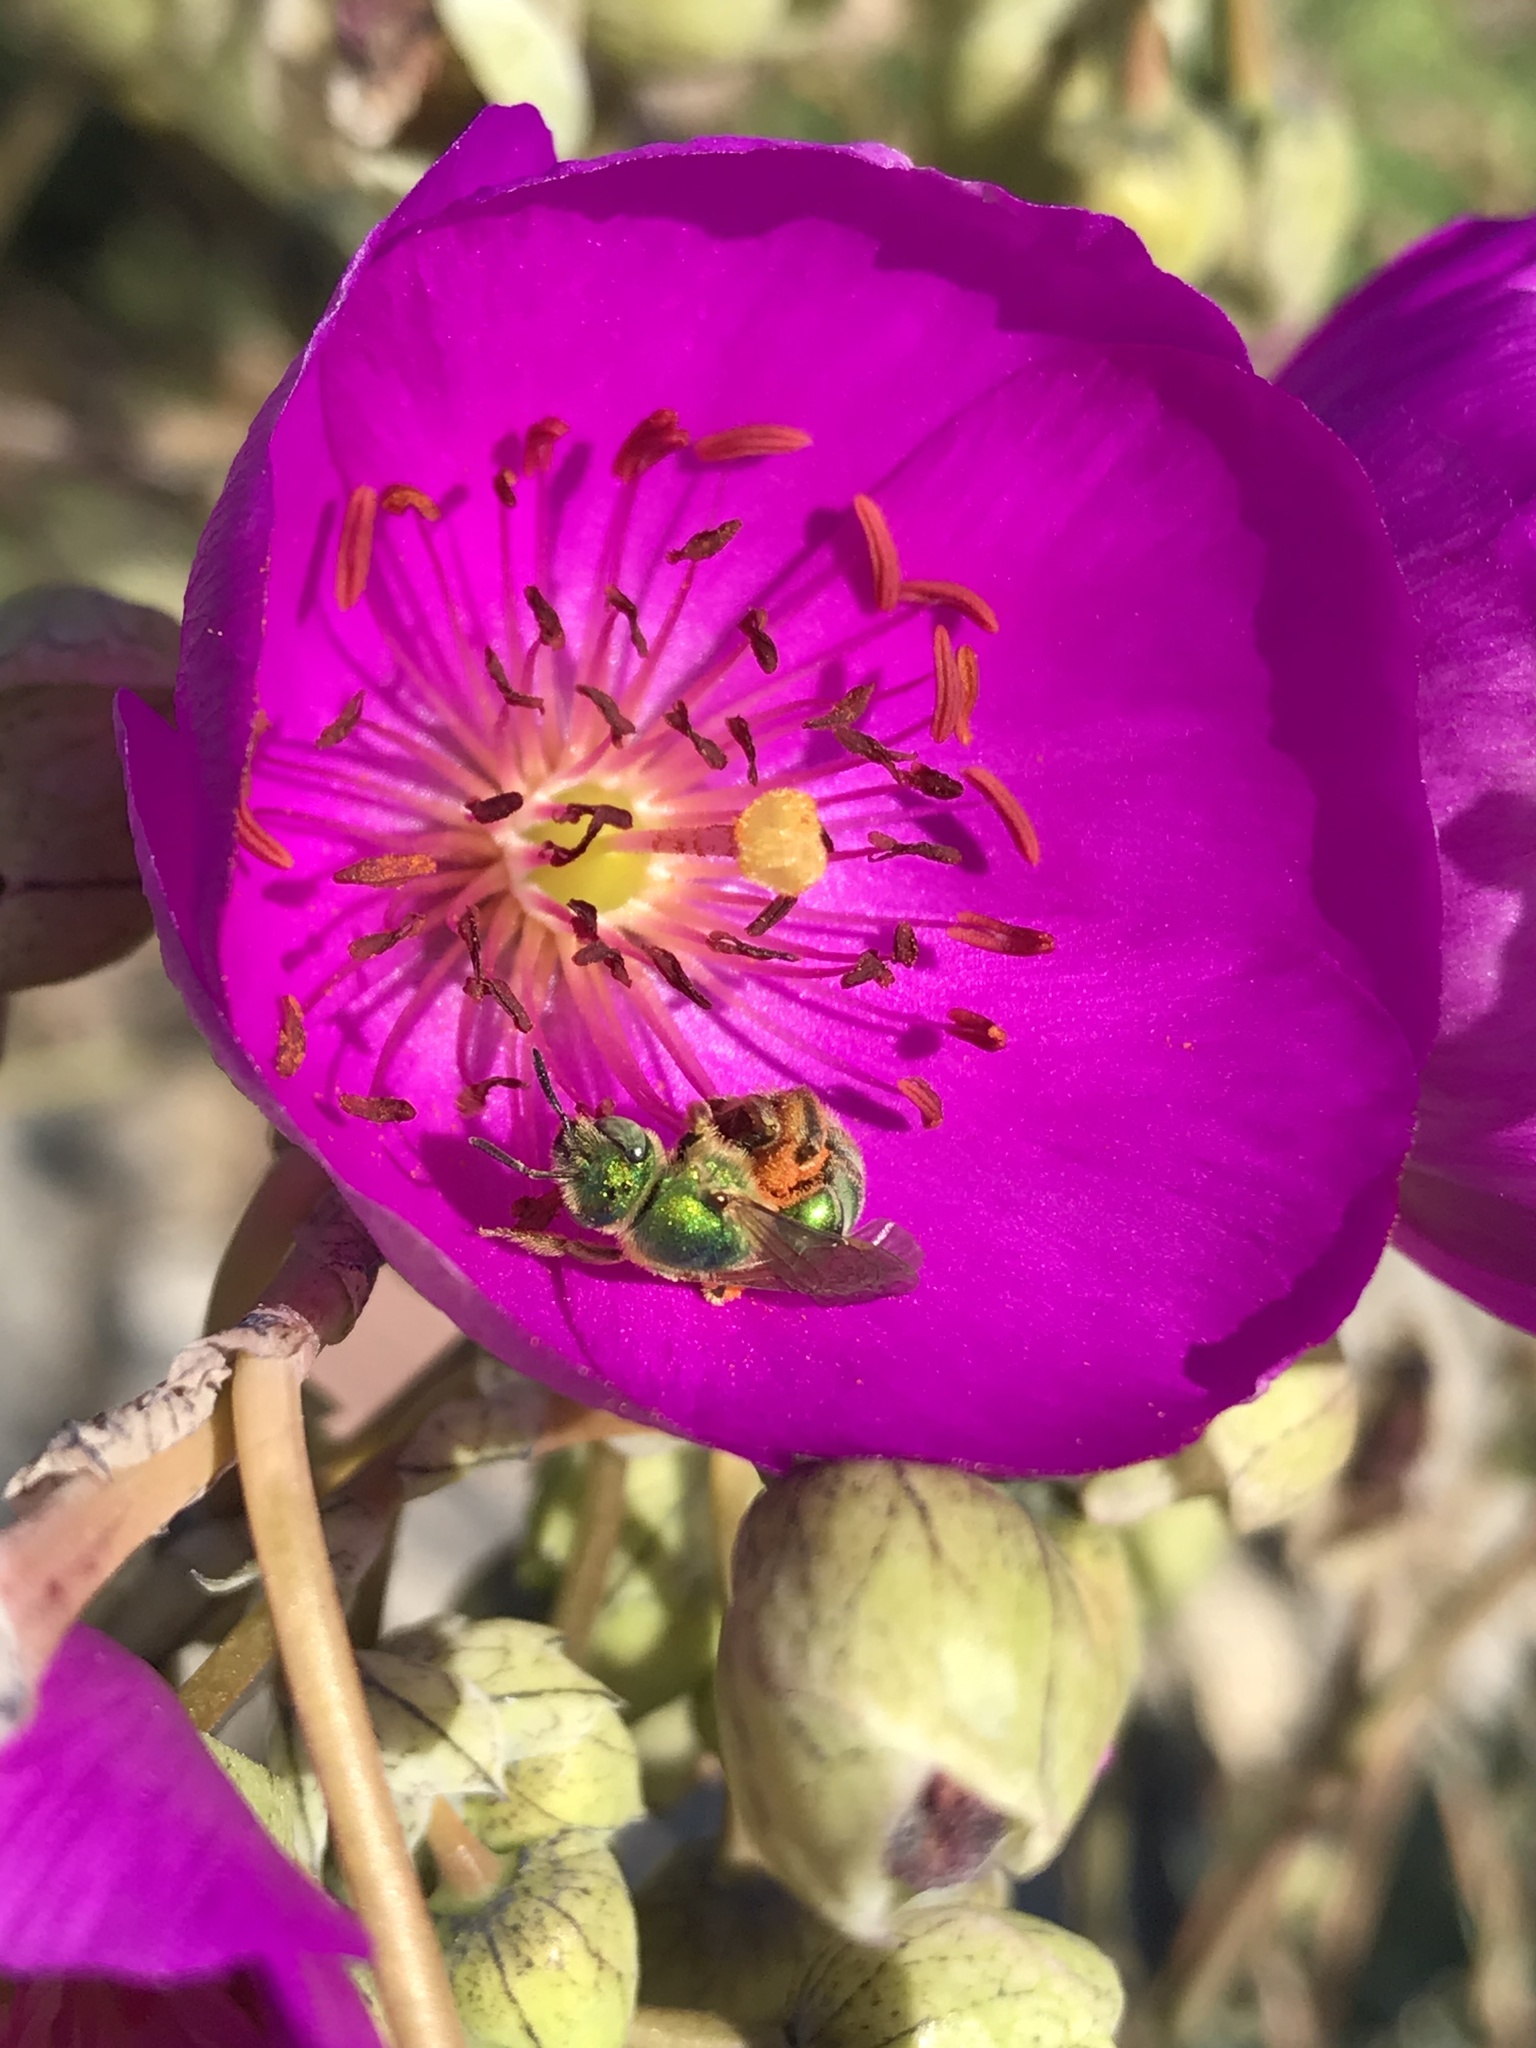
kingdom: Animalia
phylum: Arthropoda
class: Insecta
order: Hymenoptera
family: Halictidae
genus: Agapostemon
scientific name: Agapostemon
